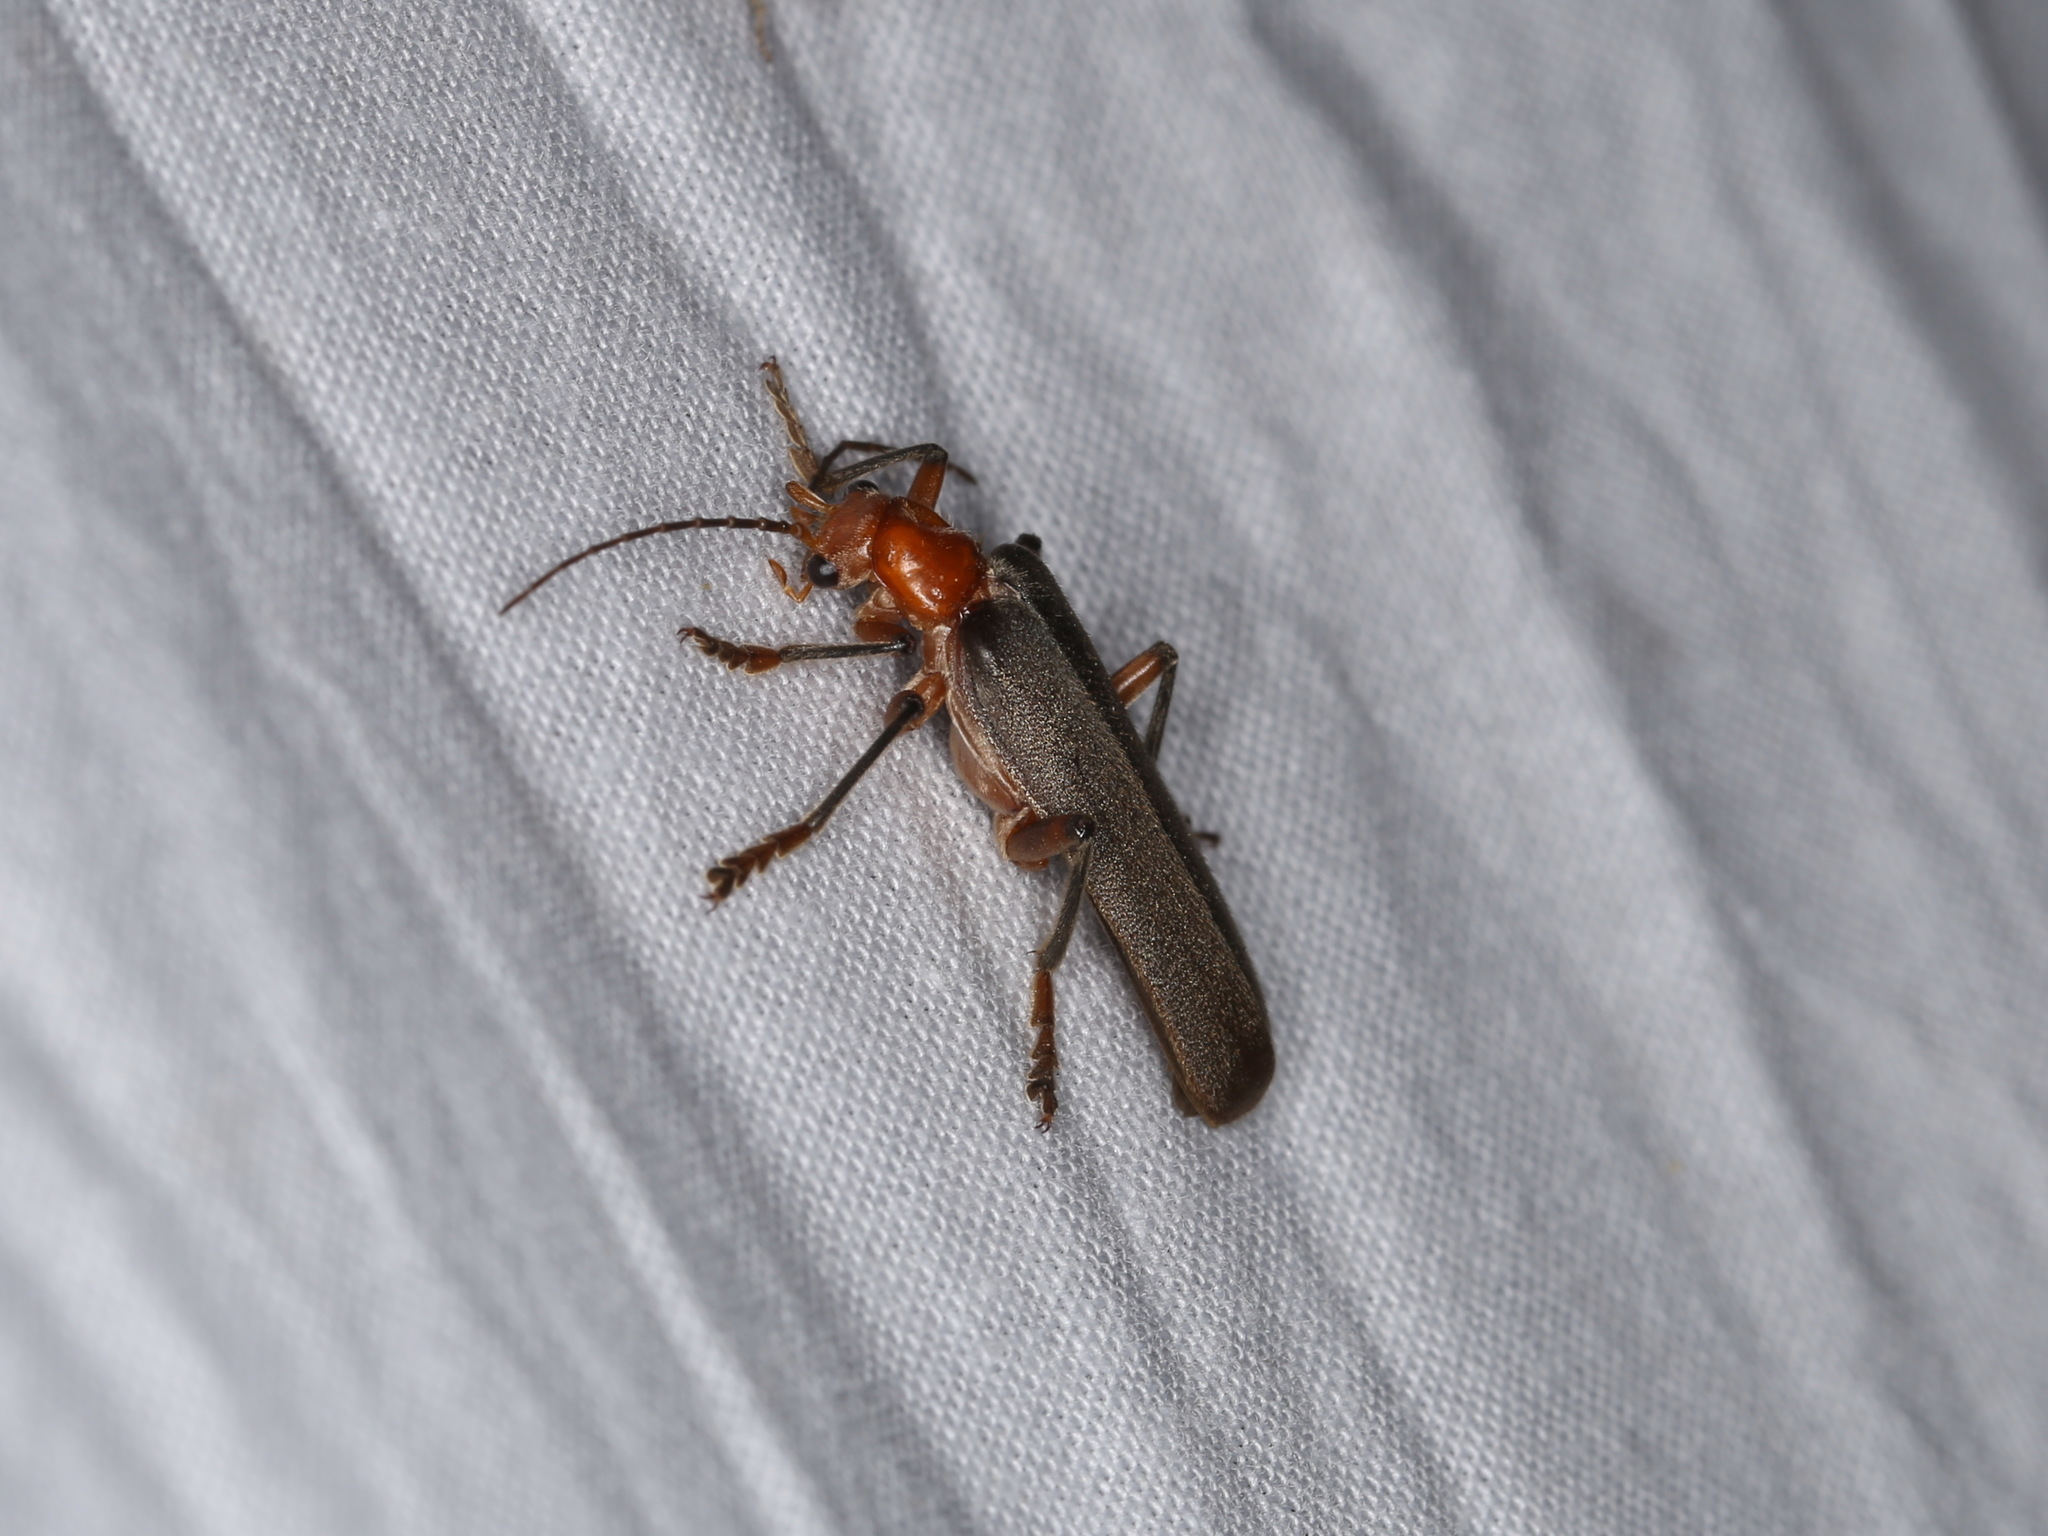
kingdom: Animalia
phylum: Arthropoda
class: Insecta
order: Coleoptera
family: Cantharidae
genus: Pacificanthia
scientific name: Pacificanthia consors
